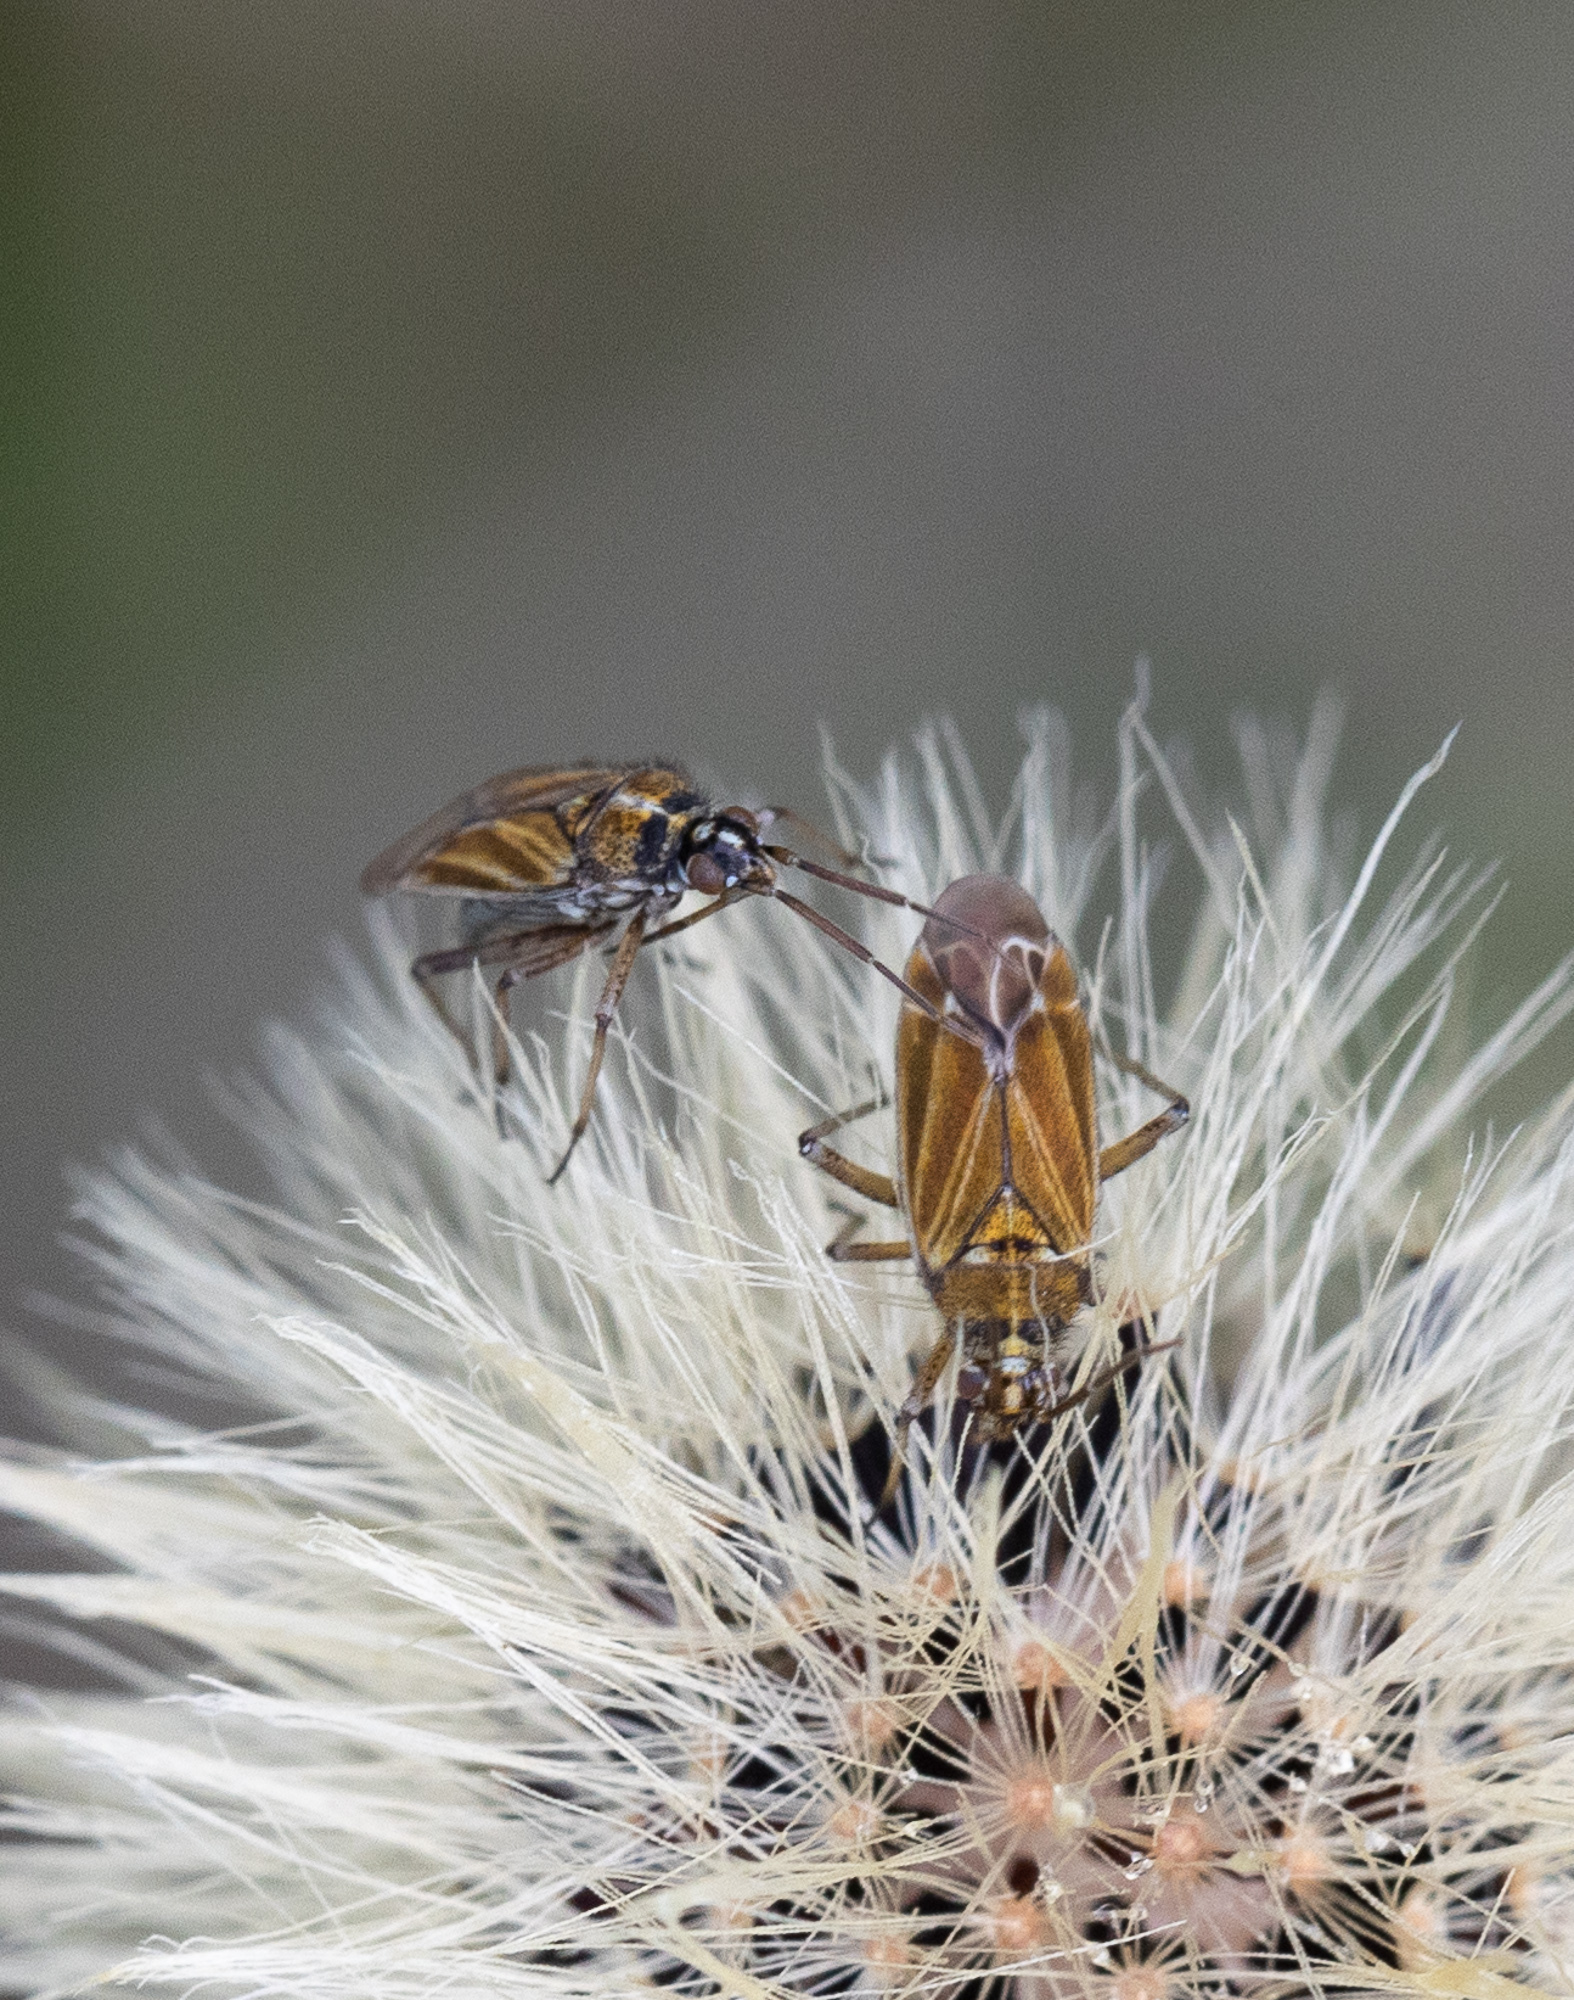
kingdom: Animalia
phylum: Arthropoda
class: Insecta
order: Hemiptera
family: Miridae
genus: Hoplomachus
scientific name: Hoplomachus thunbergii
